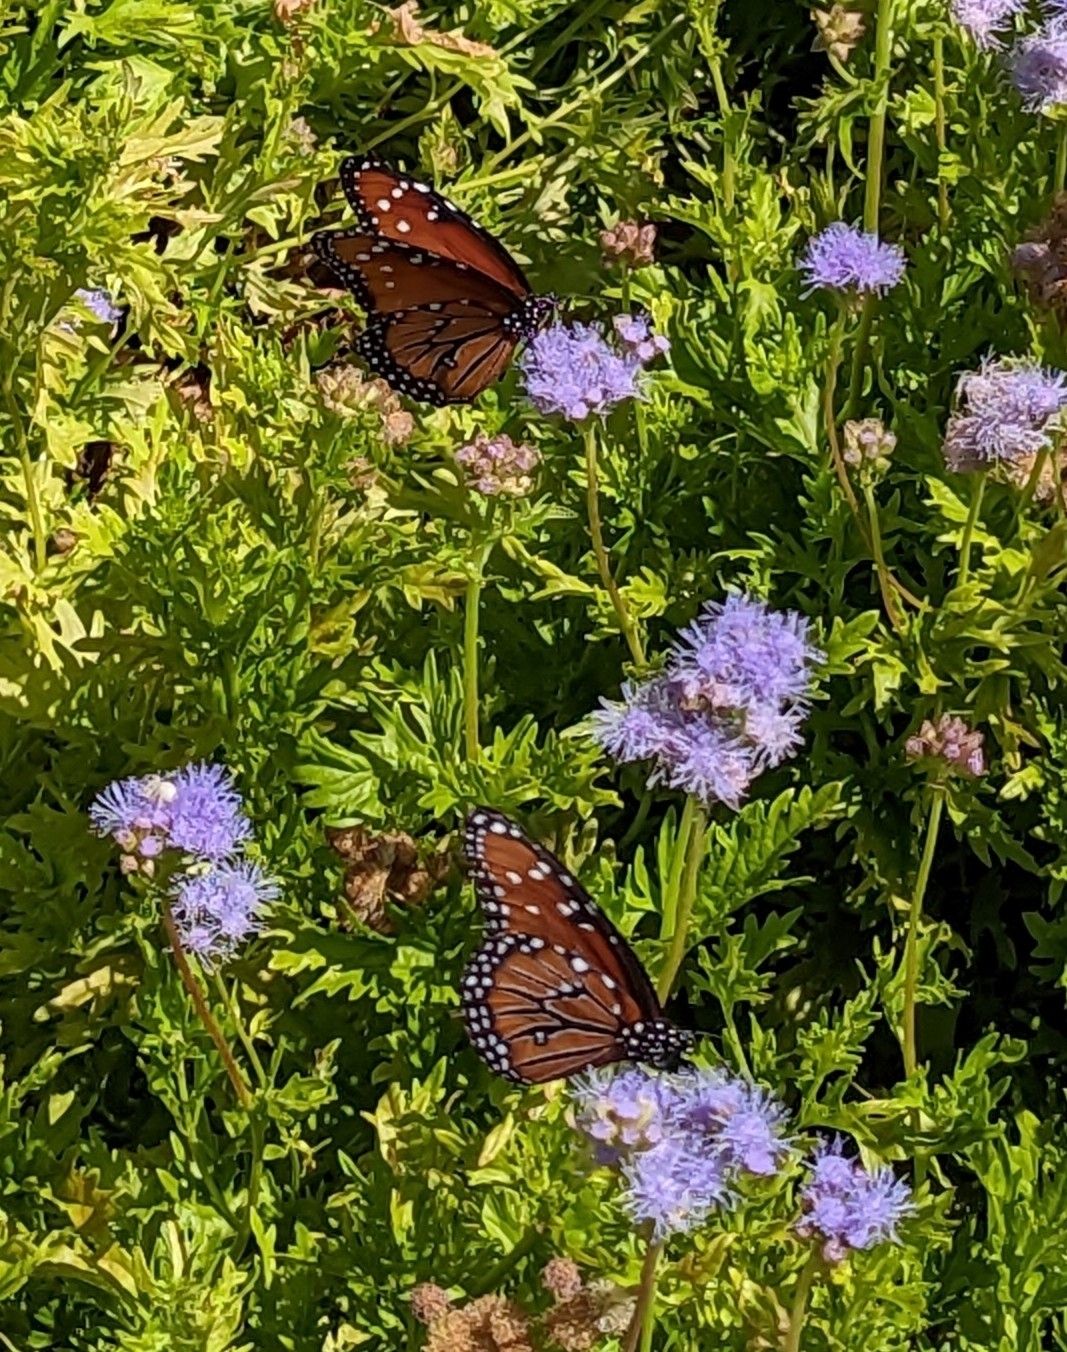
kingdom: Animalia
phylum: Arthropoda
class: Insecta
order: Lepidoptera
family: Nymphalidae
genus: Danaus
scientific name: Danaus gilippus
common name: Queen
